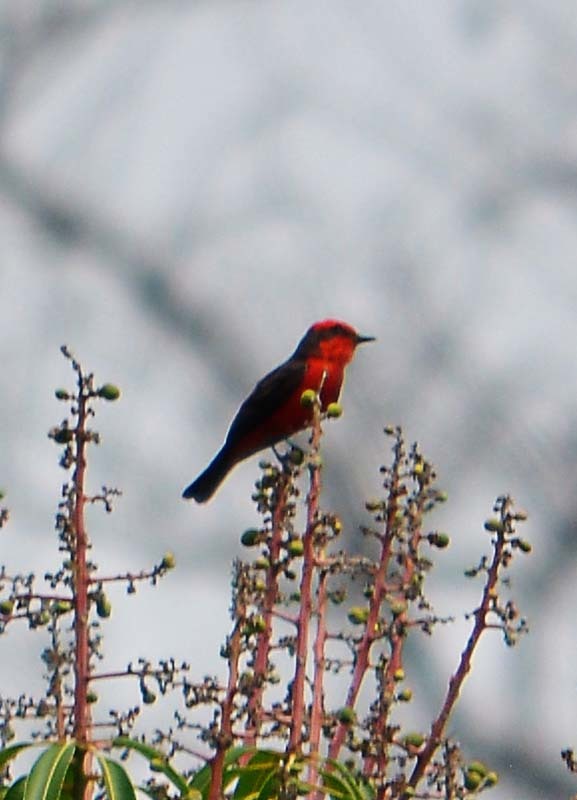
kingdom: Animalia
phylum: Chordata
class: Aves
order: Passeriformes
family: Tyrannidae
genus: Pyrocephalus
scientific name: Pyrocephalus rubinus
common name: Vermilion flycatcher
